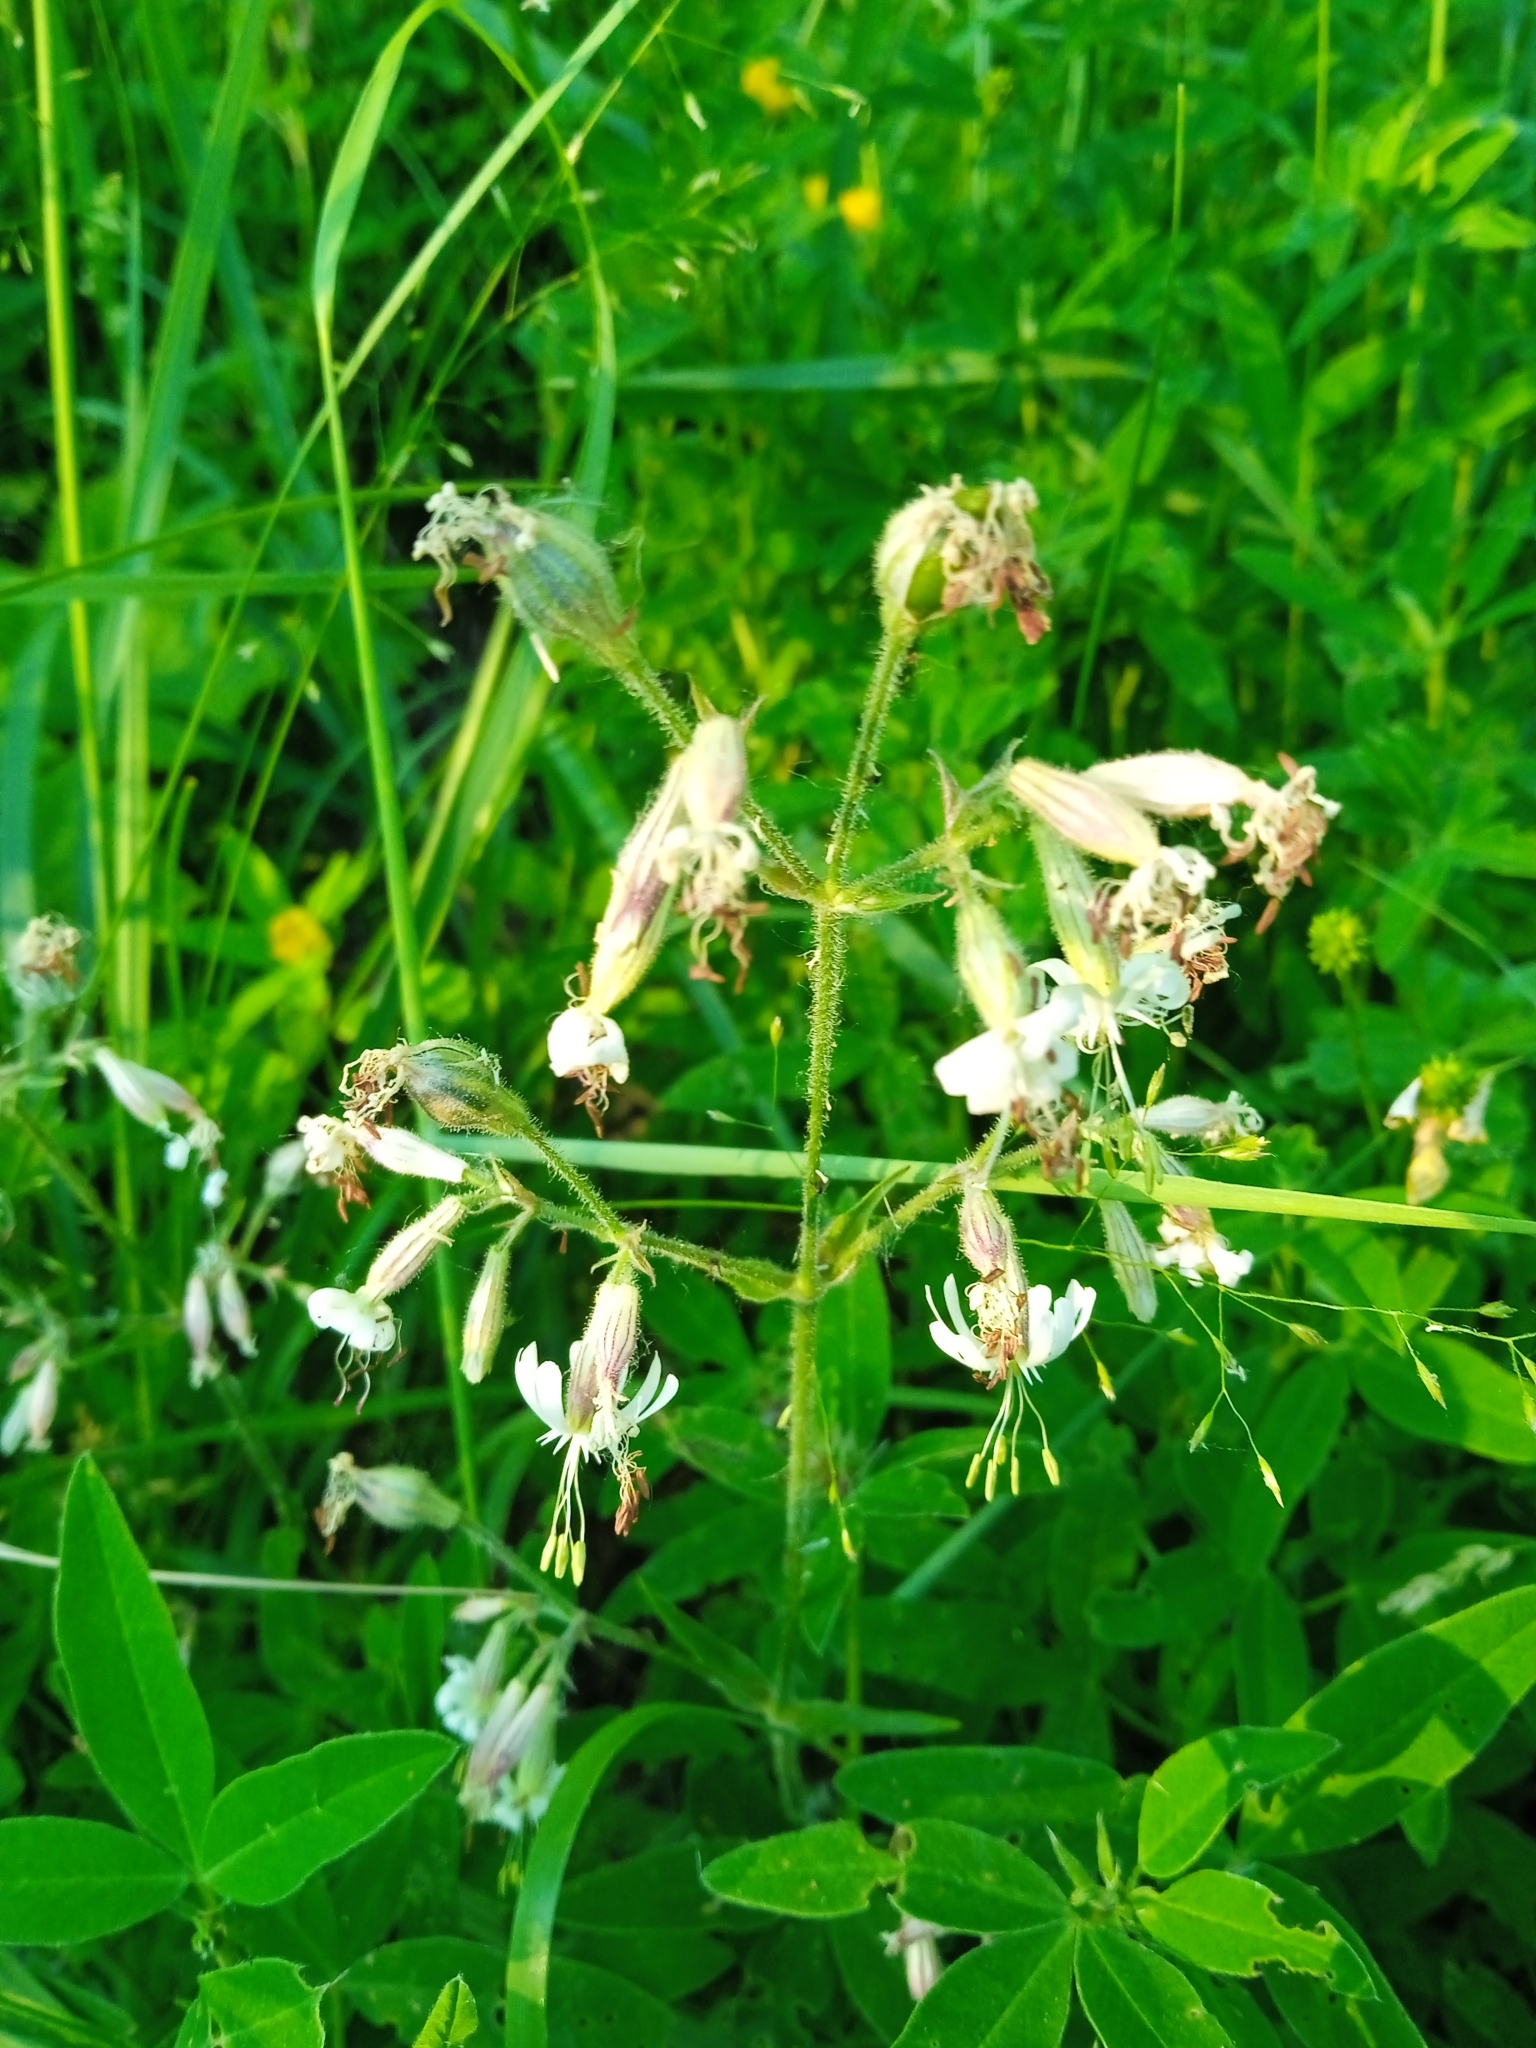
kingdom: Plantae
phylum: Tracheophyta
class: Magnoliopsida
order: Caryophyllales
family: Caryophyllaceae
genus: Silene
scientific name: Silene nutans
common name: Nottingham catchfly
